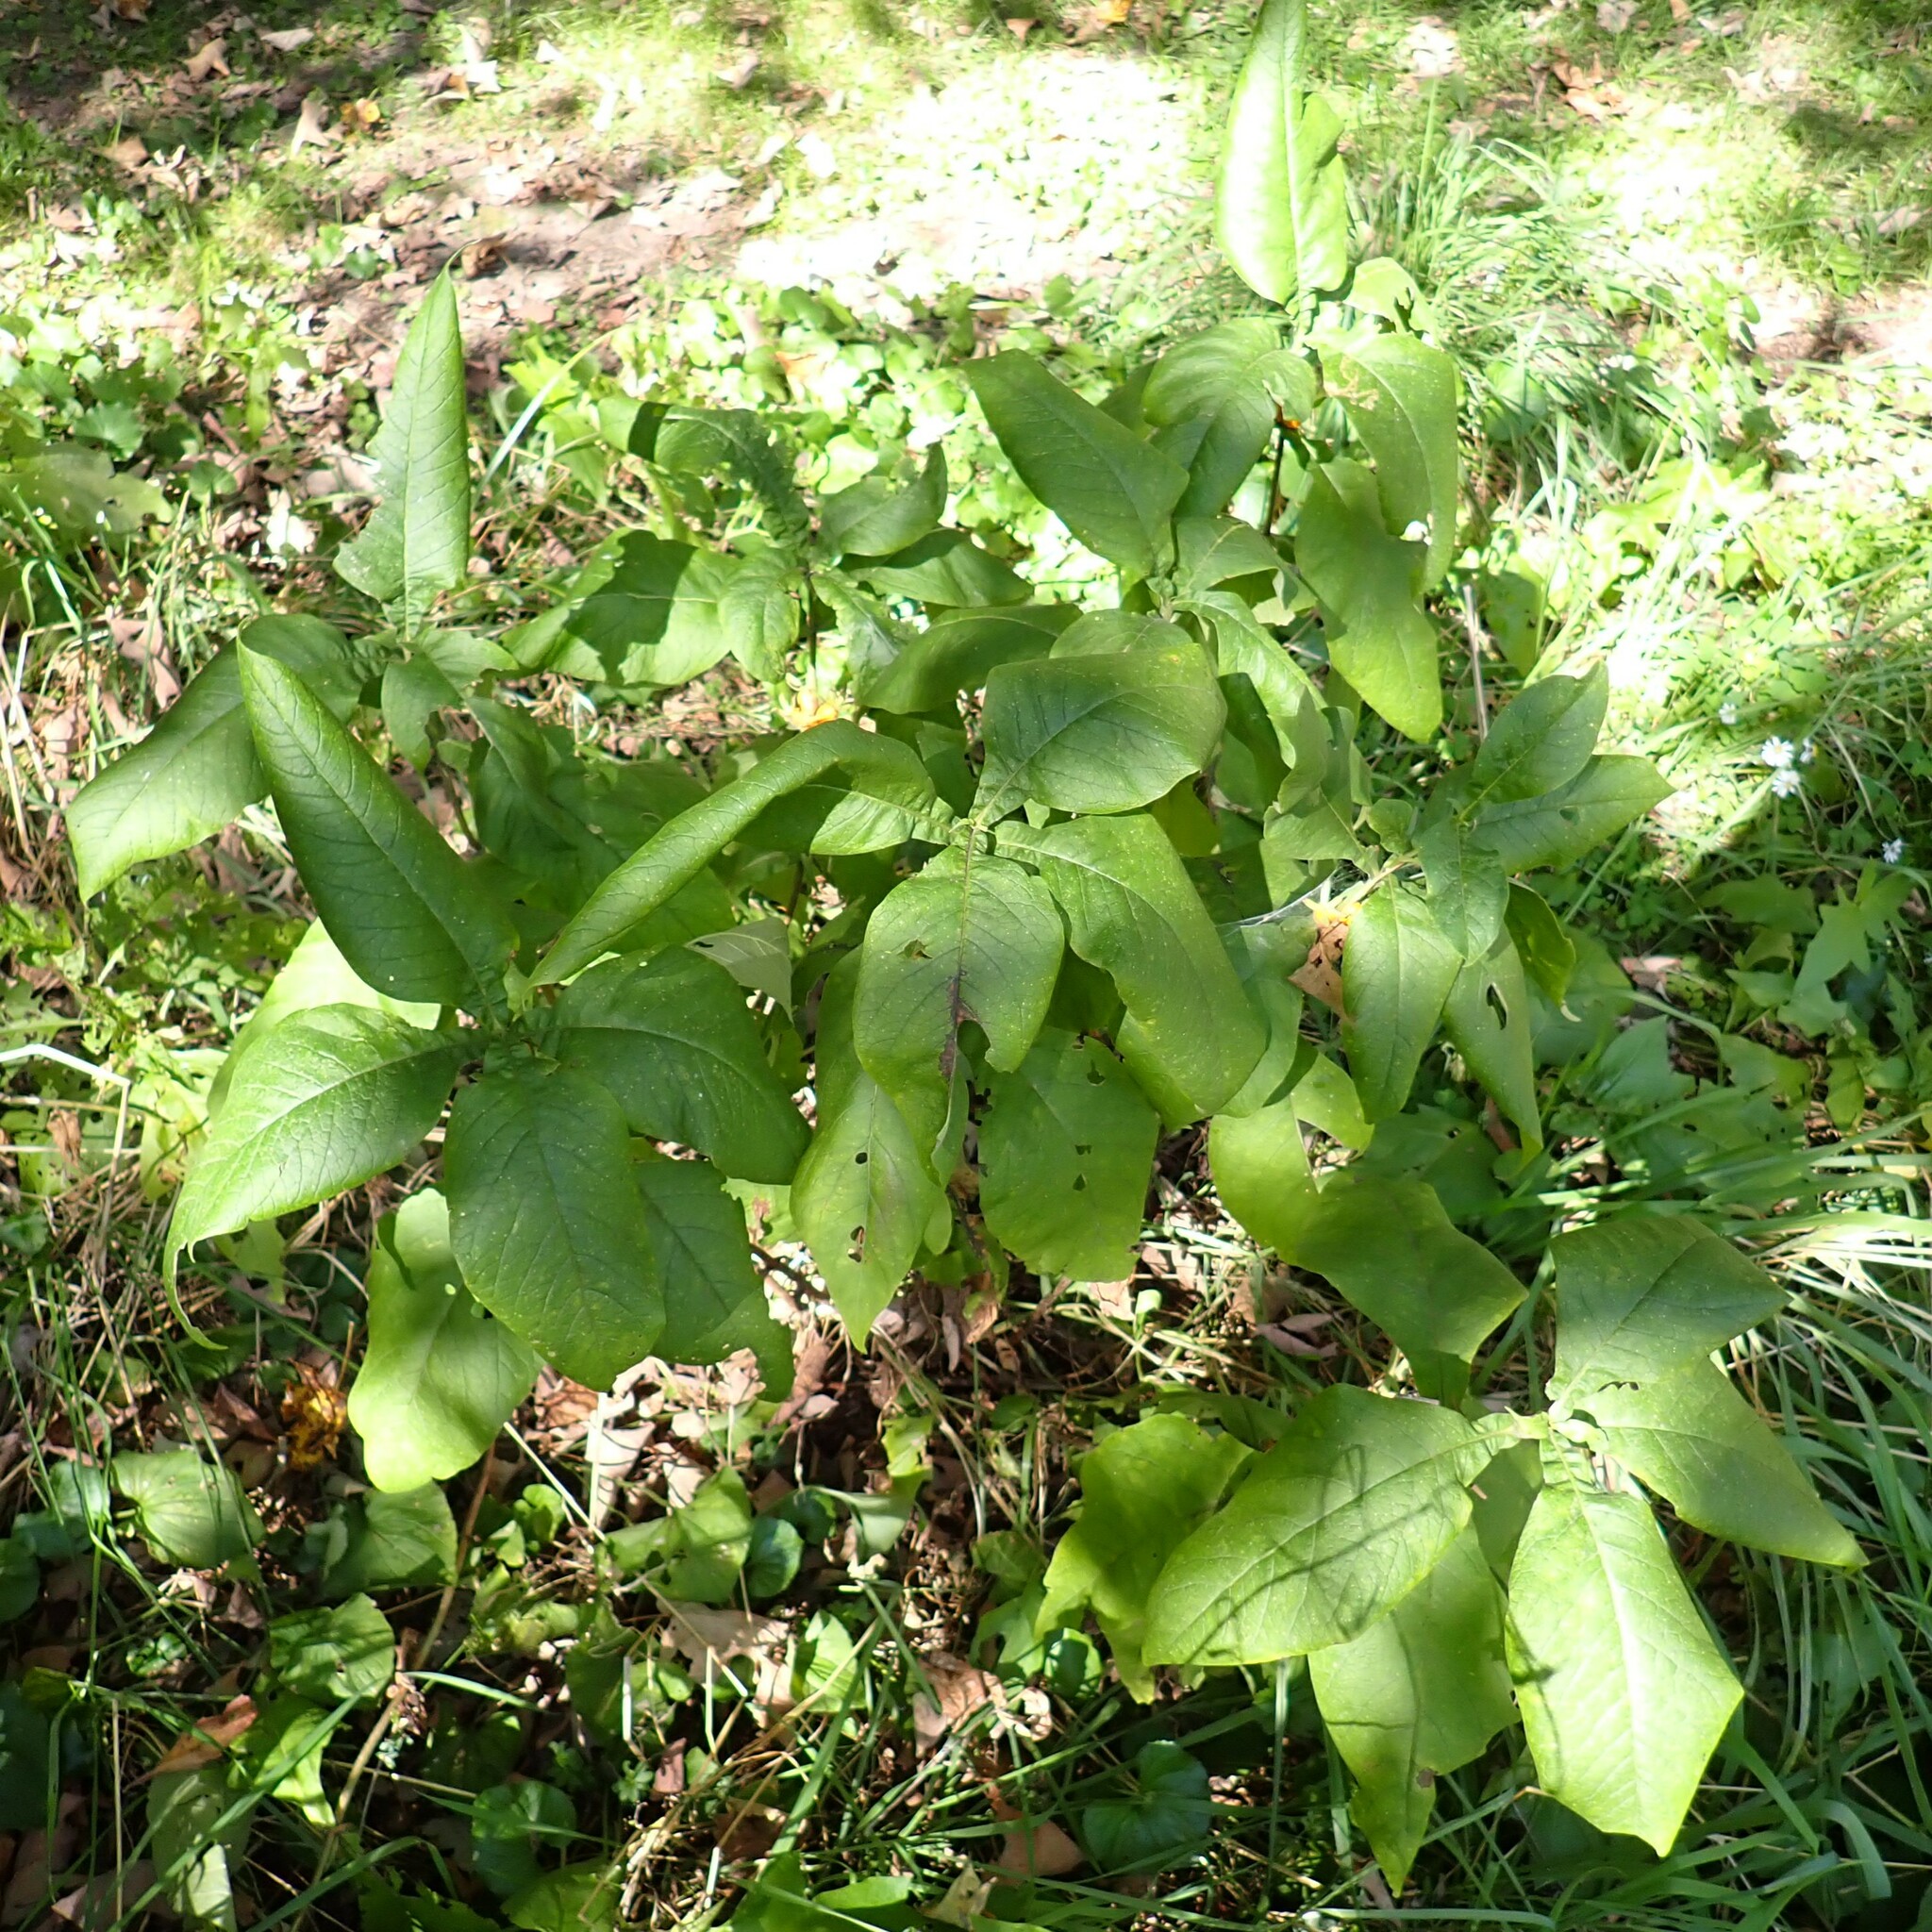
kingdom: Plantae
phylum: Tracheophyta
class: Magnoliopsida
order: Dipsacales
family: Caprifoliaceae
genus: Triosteum
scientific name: Triosteum aurantiacum
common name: Coffee tinker's-weed
